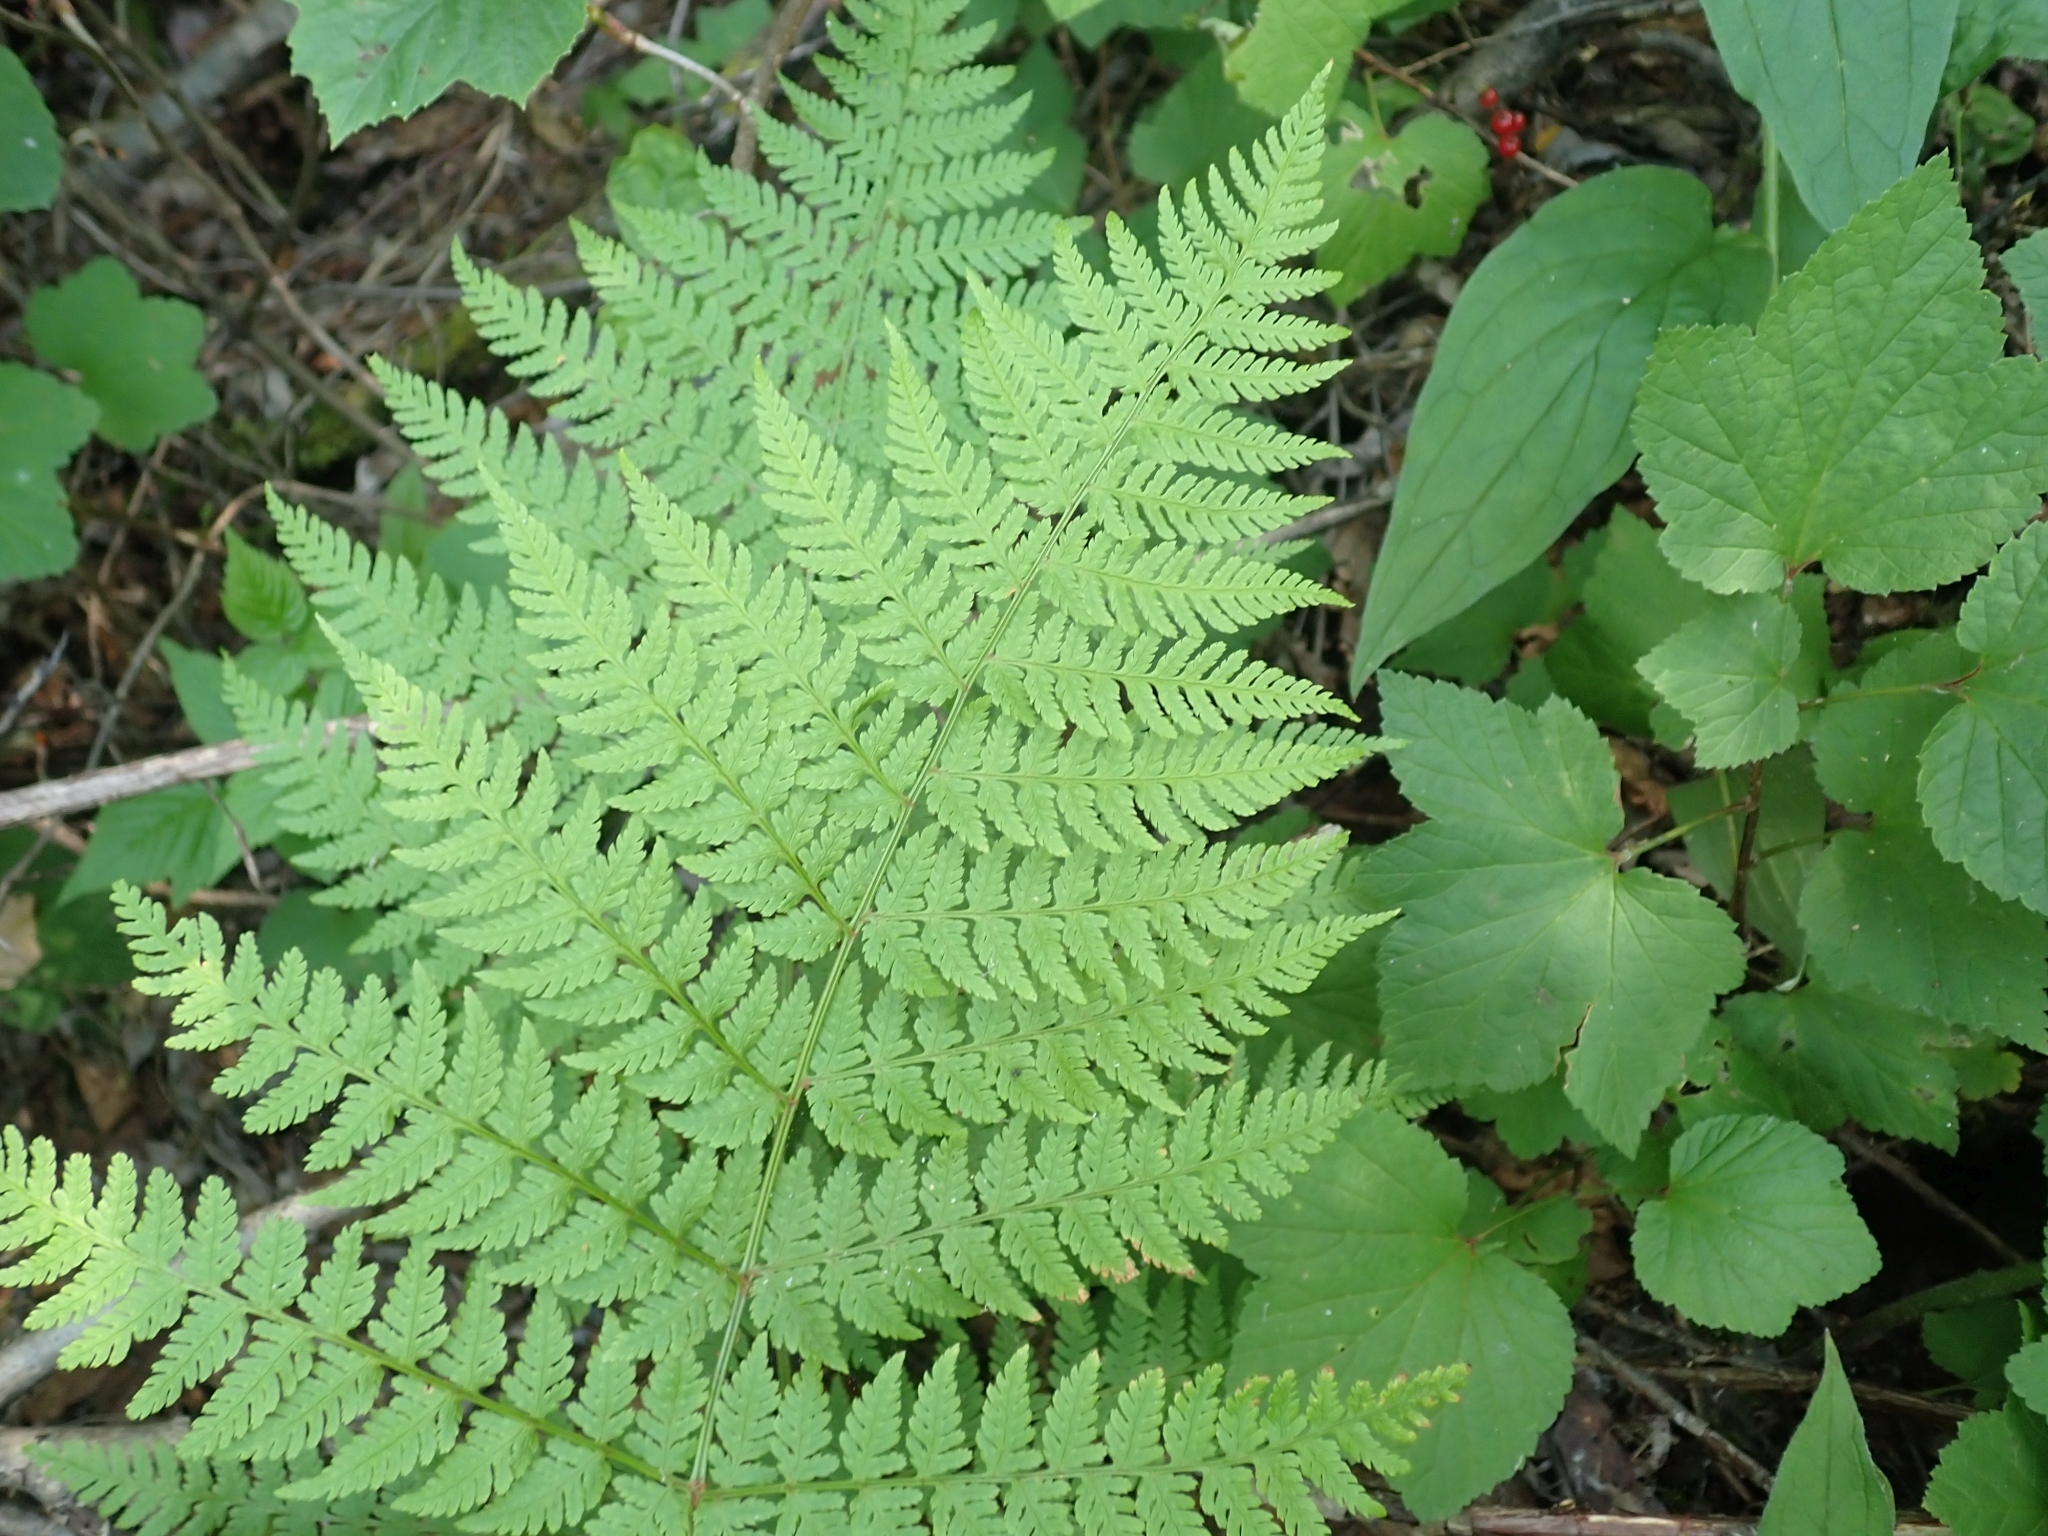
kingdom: Plantae
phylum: Tracheophyta
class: Polypodiopsida
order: Polypodiales
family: Dryopteridaceae
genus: Dryopteris
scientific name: Dryopteris expansa
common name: Northern buckler fern
